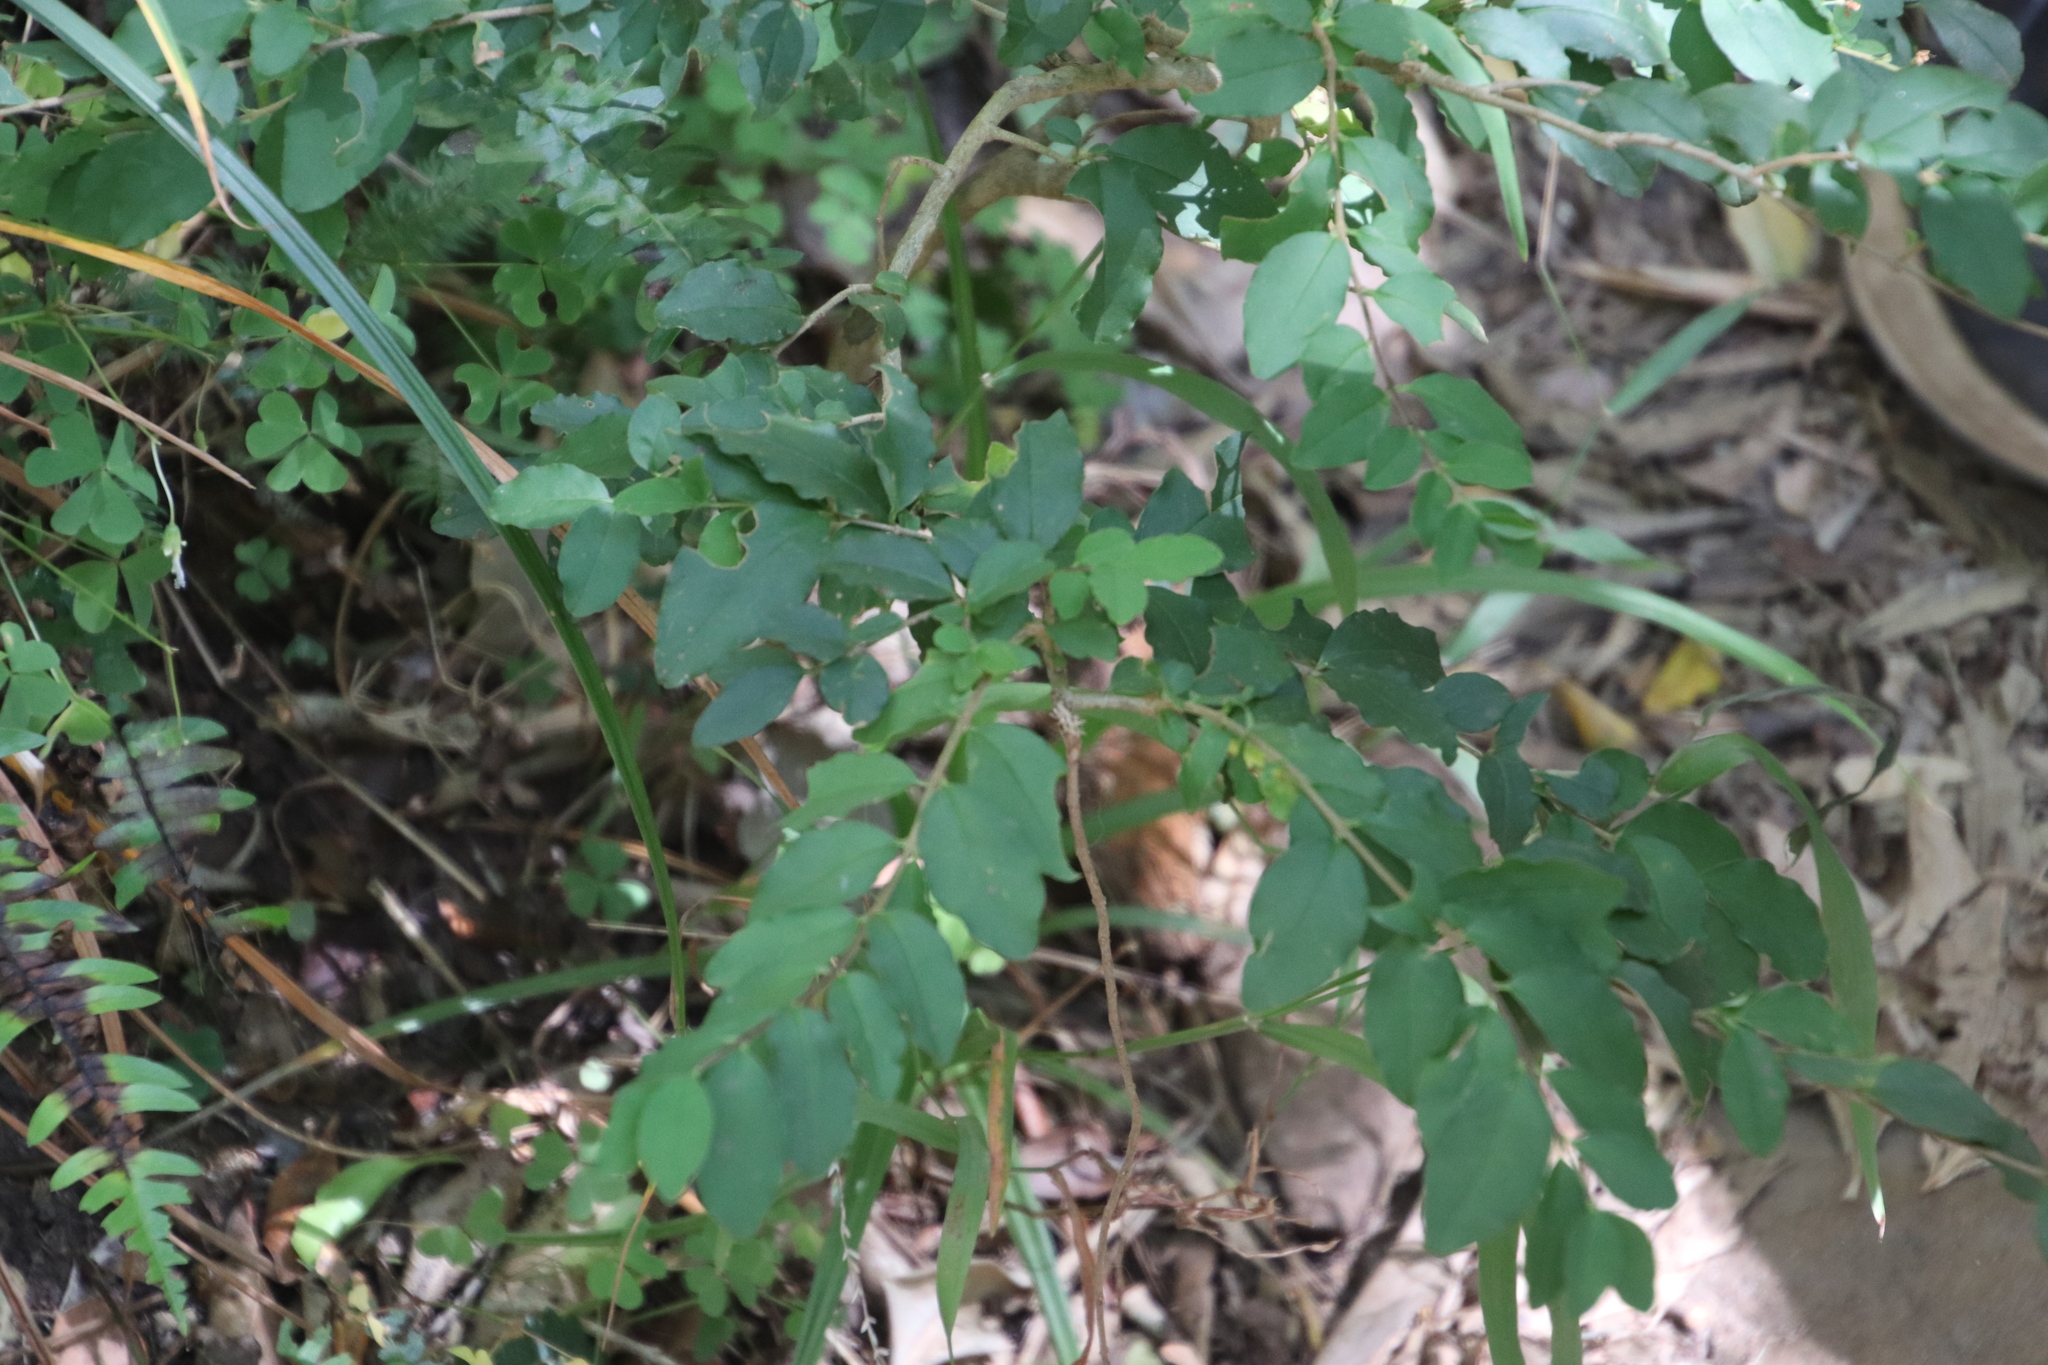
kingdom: Plantae
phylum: Tracheophyta
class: Magnoliopsida
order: Lamiales
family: Oleaceae
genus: Ligustrum
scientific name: Ligustrum sinense
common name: Chinese privet
